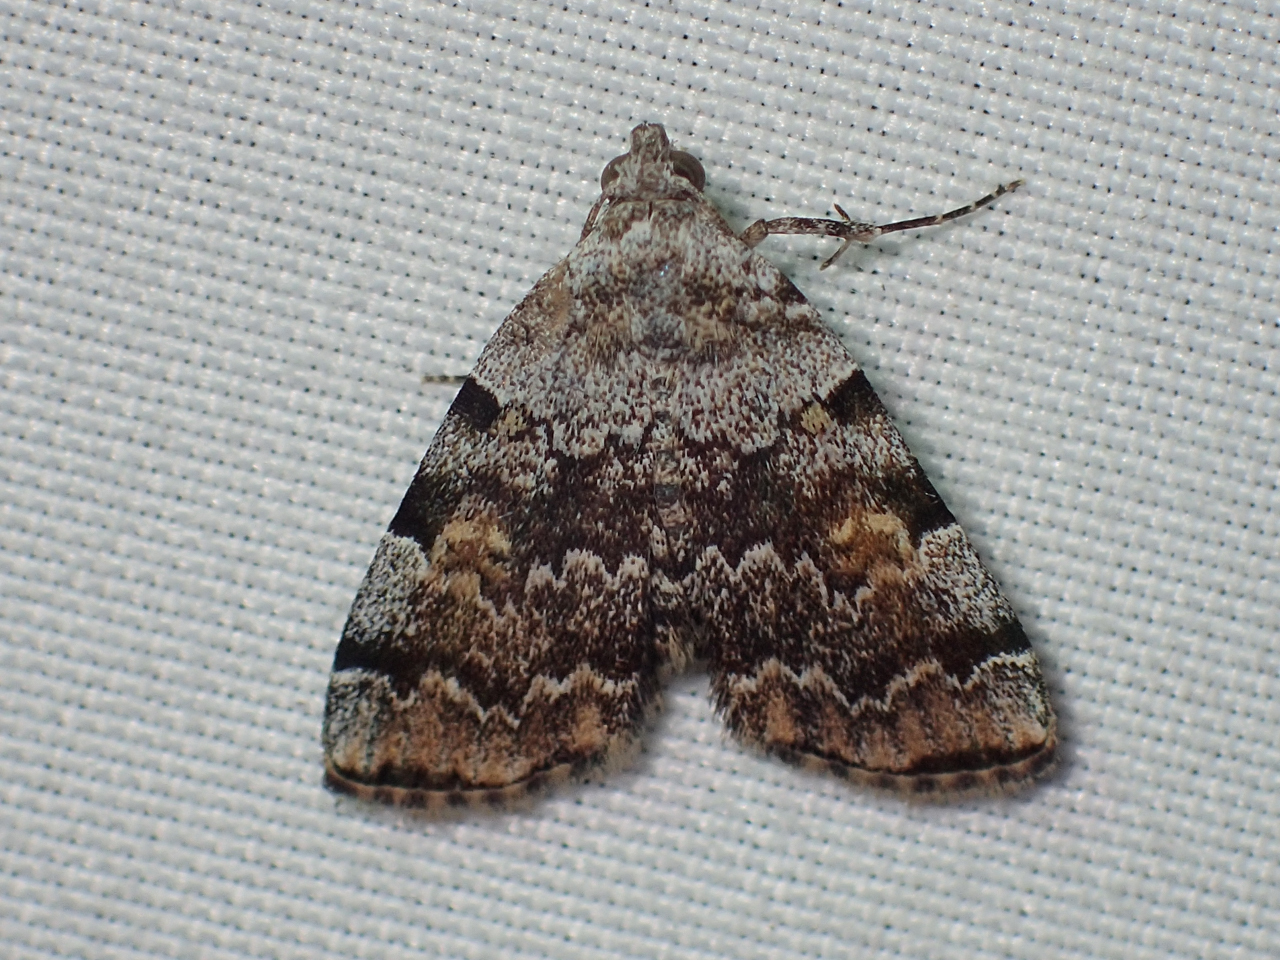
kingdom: Animalia
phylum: Arthropoda
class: Insecta
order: Lepidoptera
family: Erebidae
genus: Idia
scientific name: Idia americalis
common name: American idia moth
